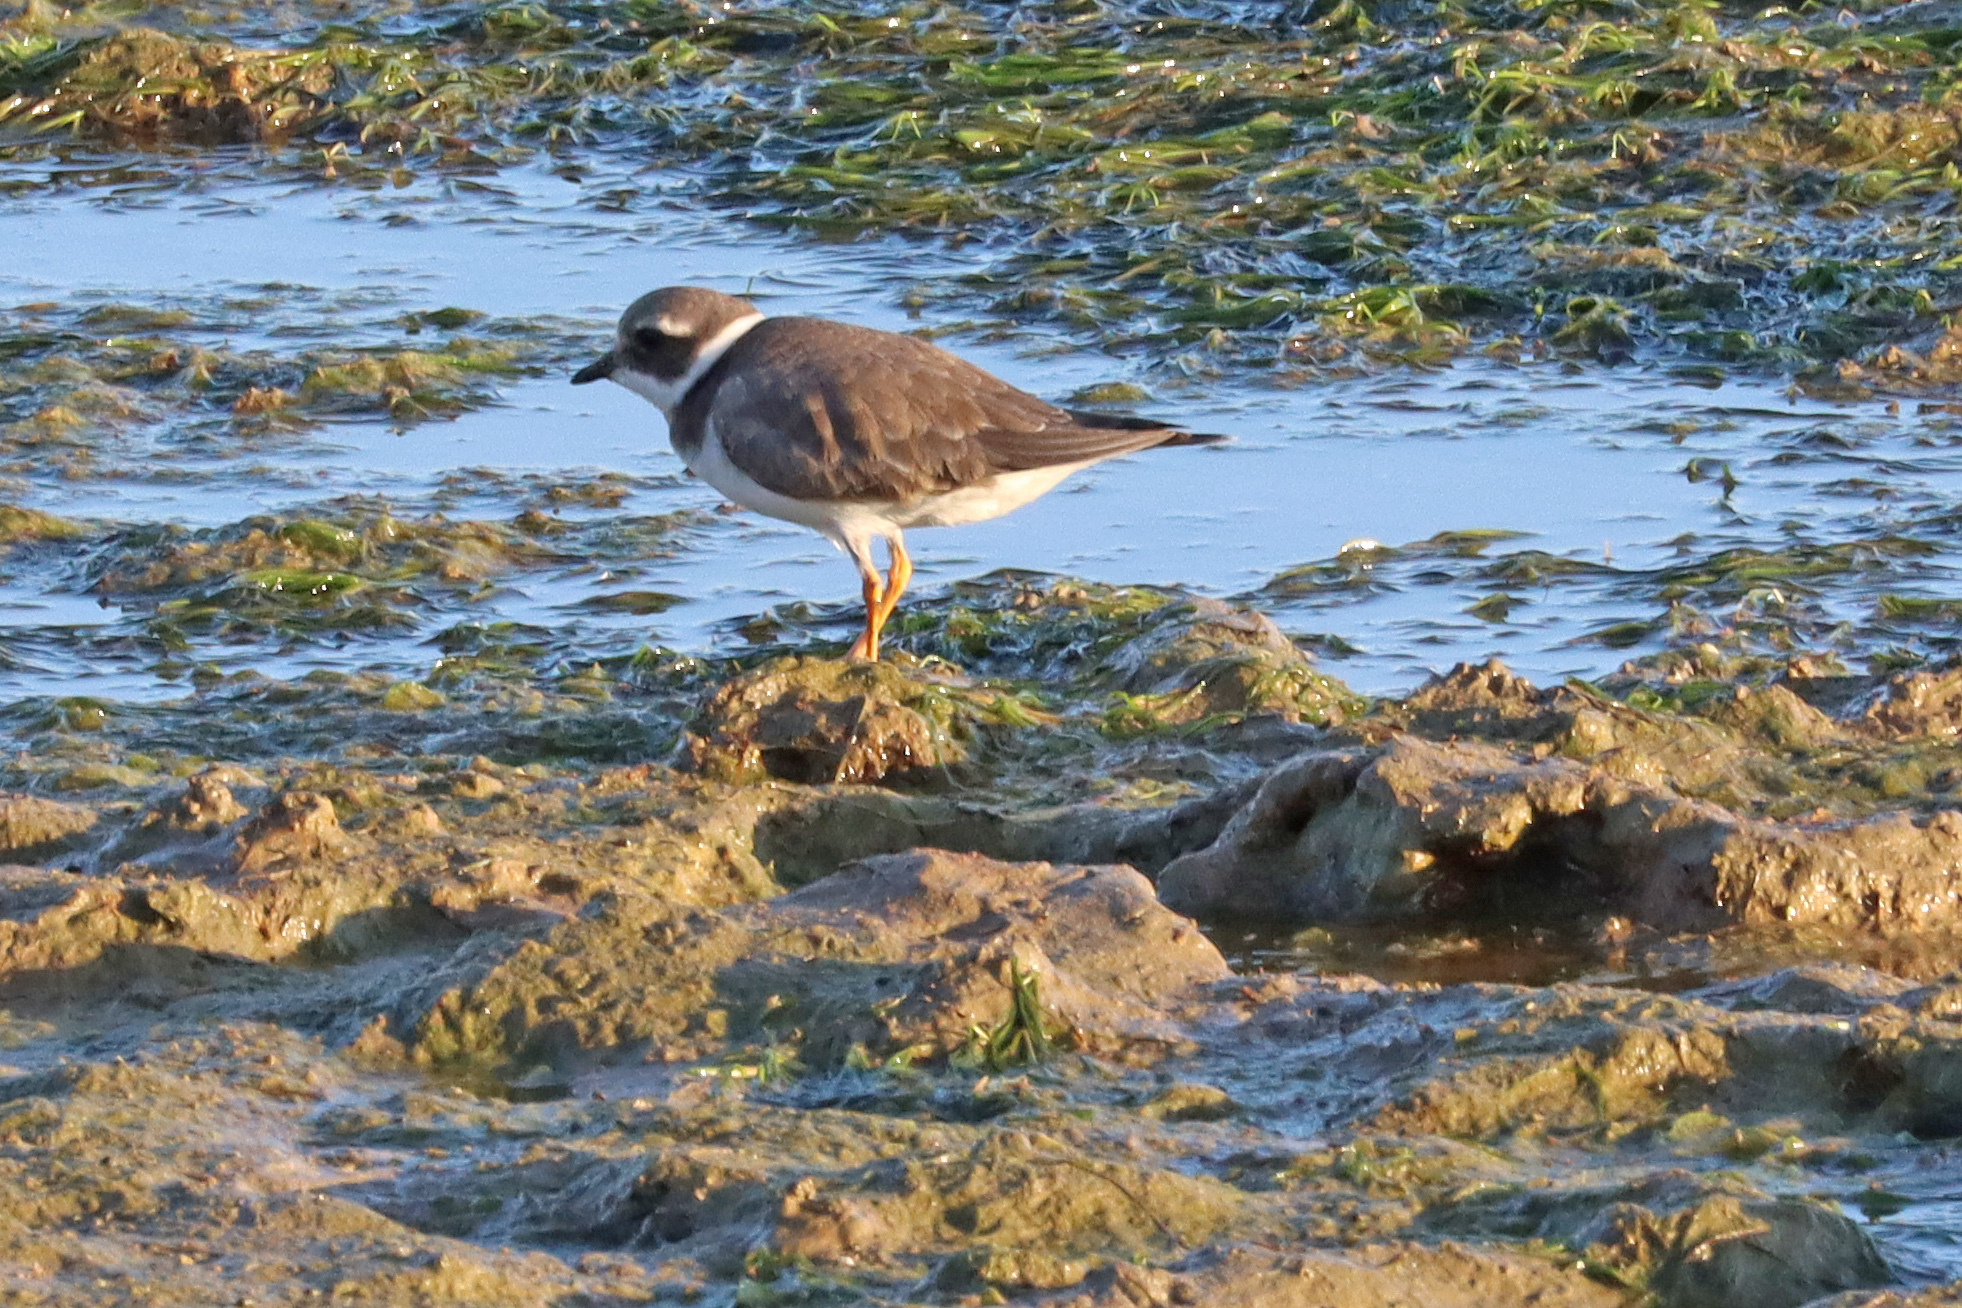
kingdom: Animalia
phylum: Chordata
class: Aves
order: Charadriiformes
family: Charadriidae
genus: Charadrius
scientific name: Charadrius hiaticula
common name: Common ringed plover
